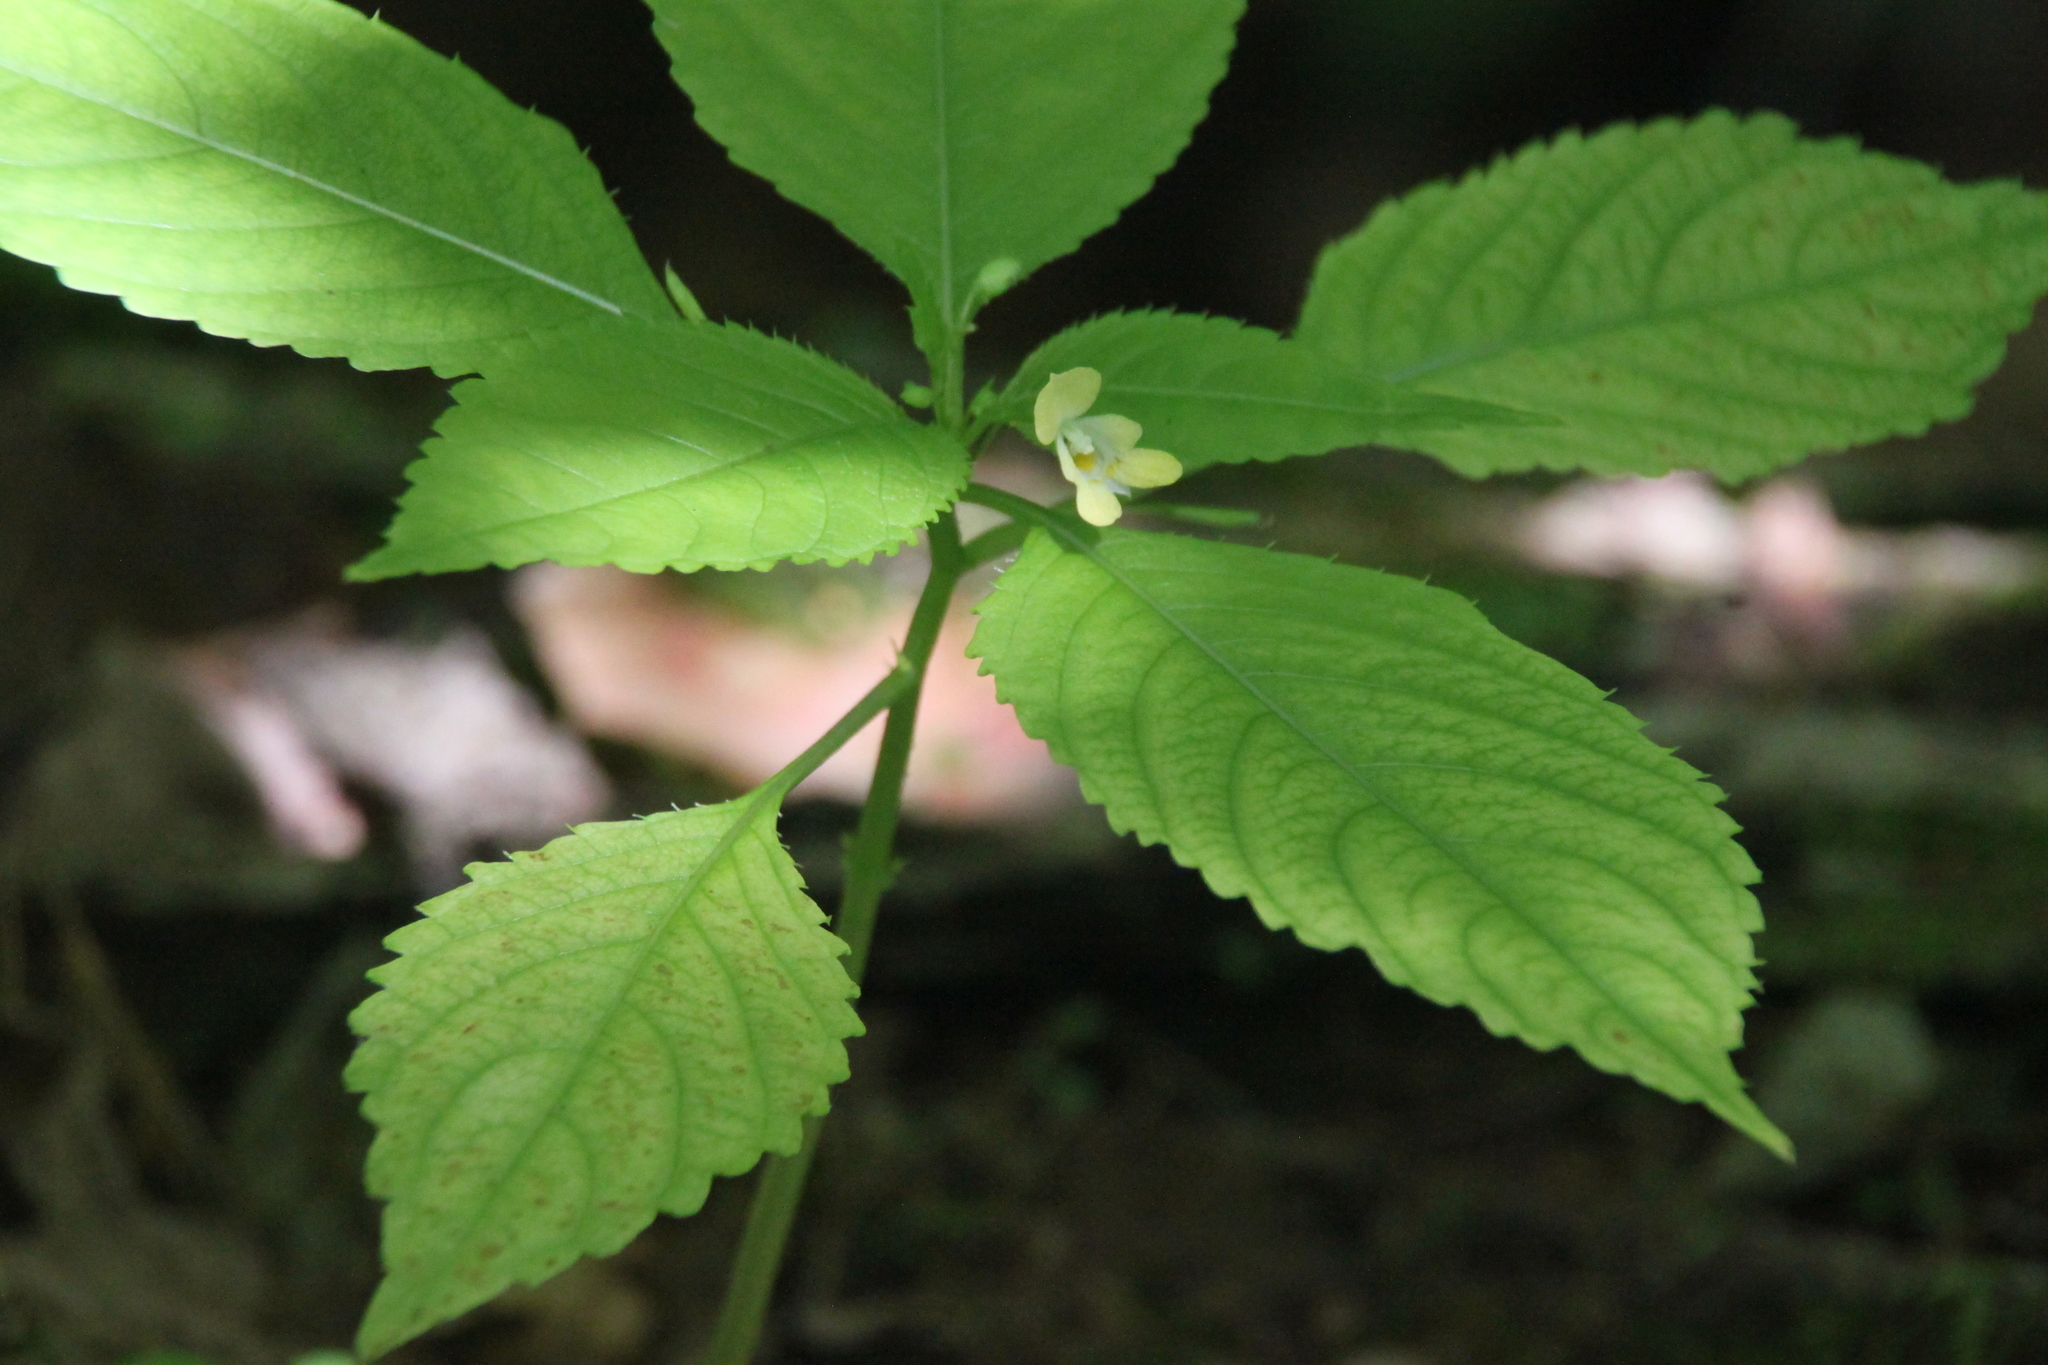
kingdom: Plantae
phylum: Tracheophyta
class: Magnoliopsida
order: Ericales
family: Balsaminaceae
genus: Impatiens
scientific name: Impatiens parviflora
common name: Small balsam
